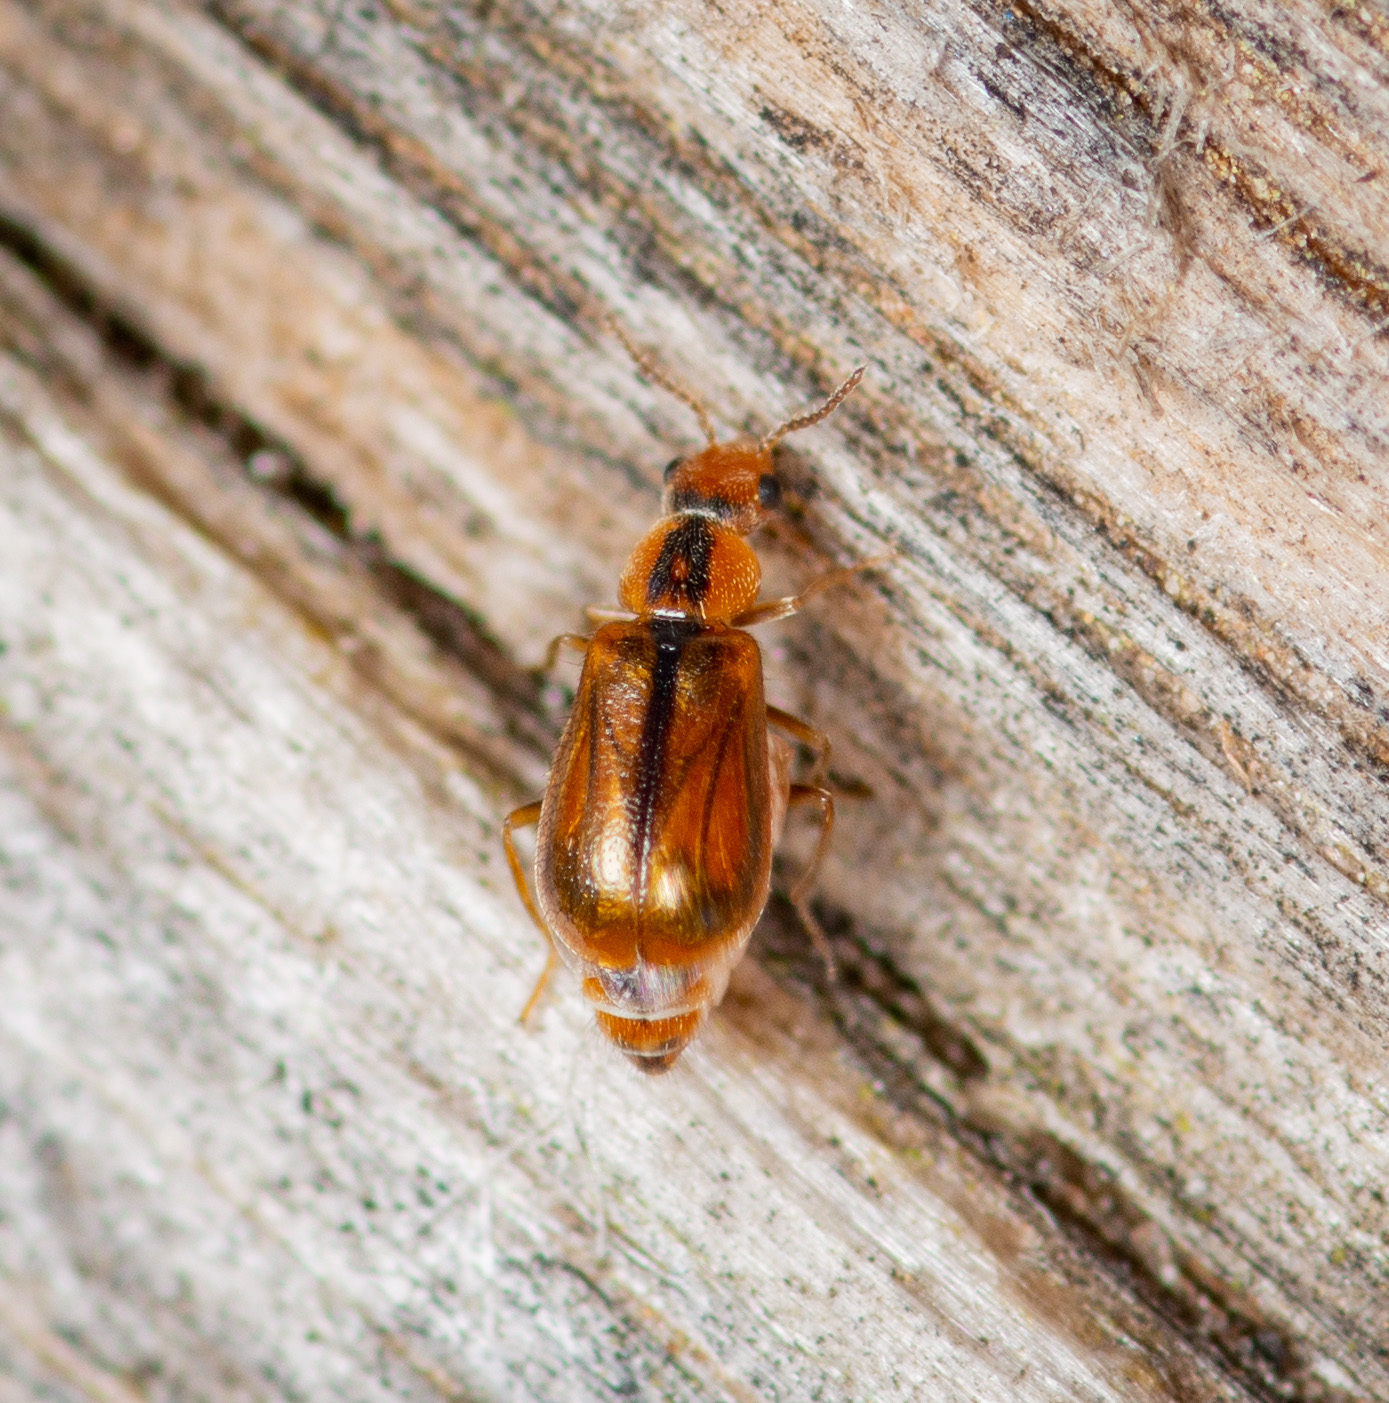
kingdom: Animalia
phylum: Arthropoda
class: Insecta
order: Coleoptera
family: Malachiidae
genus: Attalus
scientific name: Attalus
